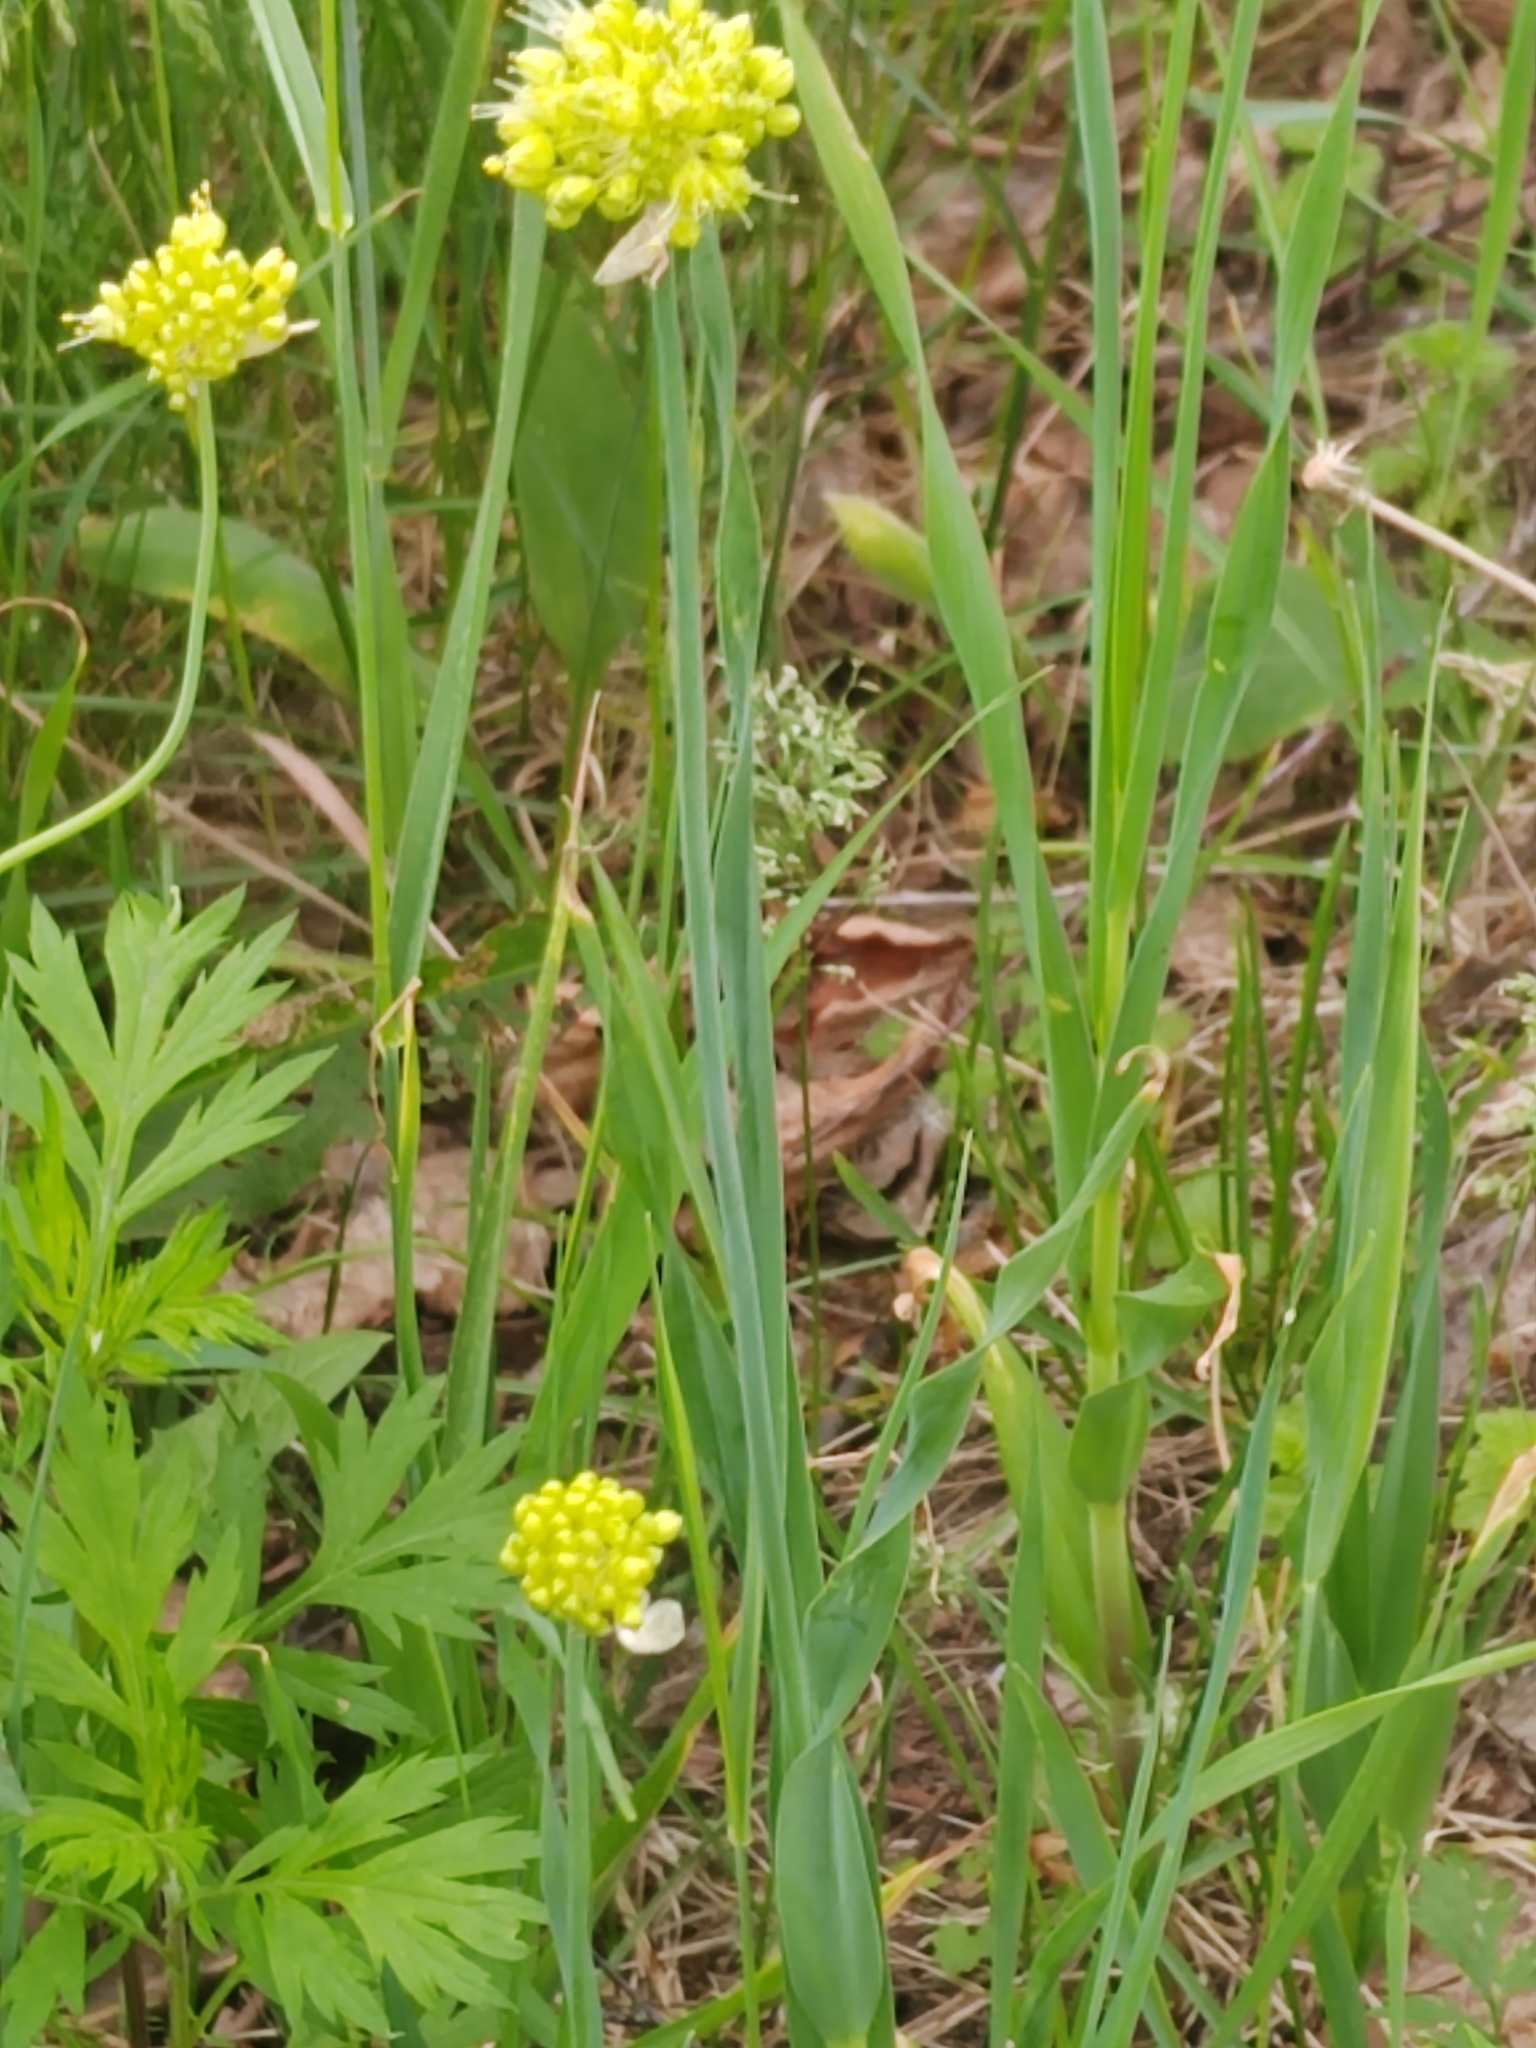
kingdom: Plantae
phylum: Tracheophyta
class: Liliopsida
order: Asparagales
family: Amaryllidaceae
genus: Allium
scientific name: Allium obliquum
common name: Oblique onion
